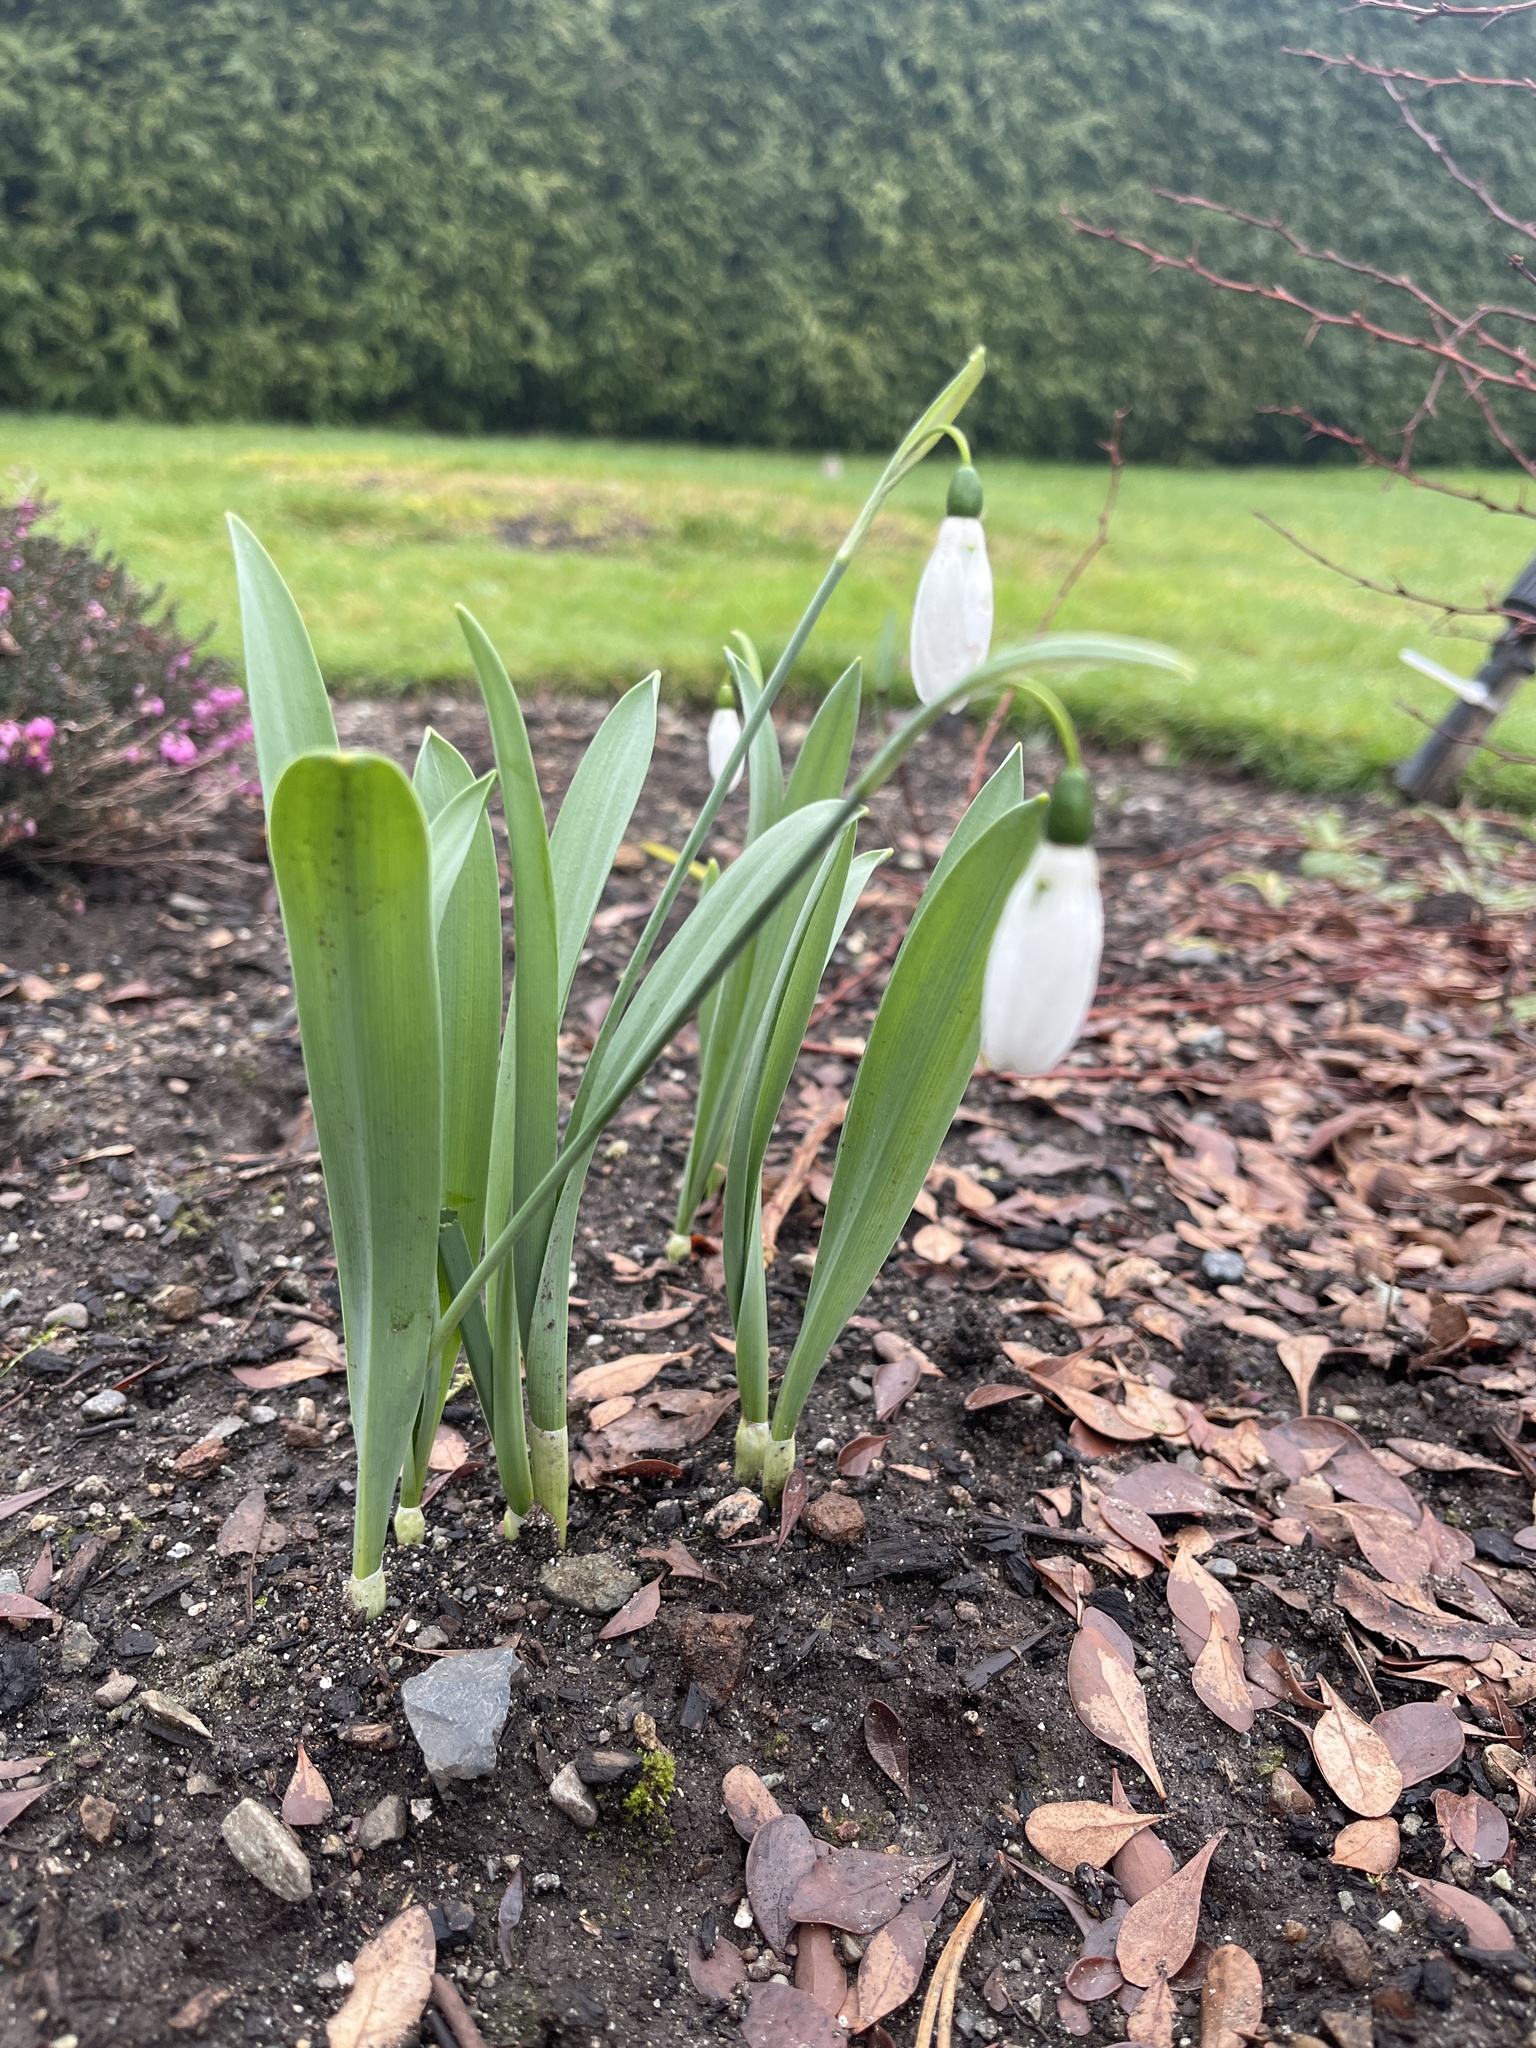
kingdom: Plantae
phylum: Tracheophyta
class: Liliopsida
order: Asparagales
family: Amaryllidaceae
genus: Galanthus
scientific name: Galanthus elwesii
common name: Greater snowdrop
